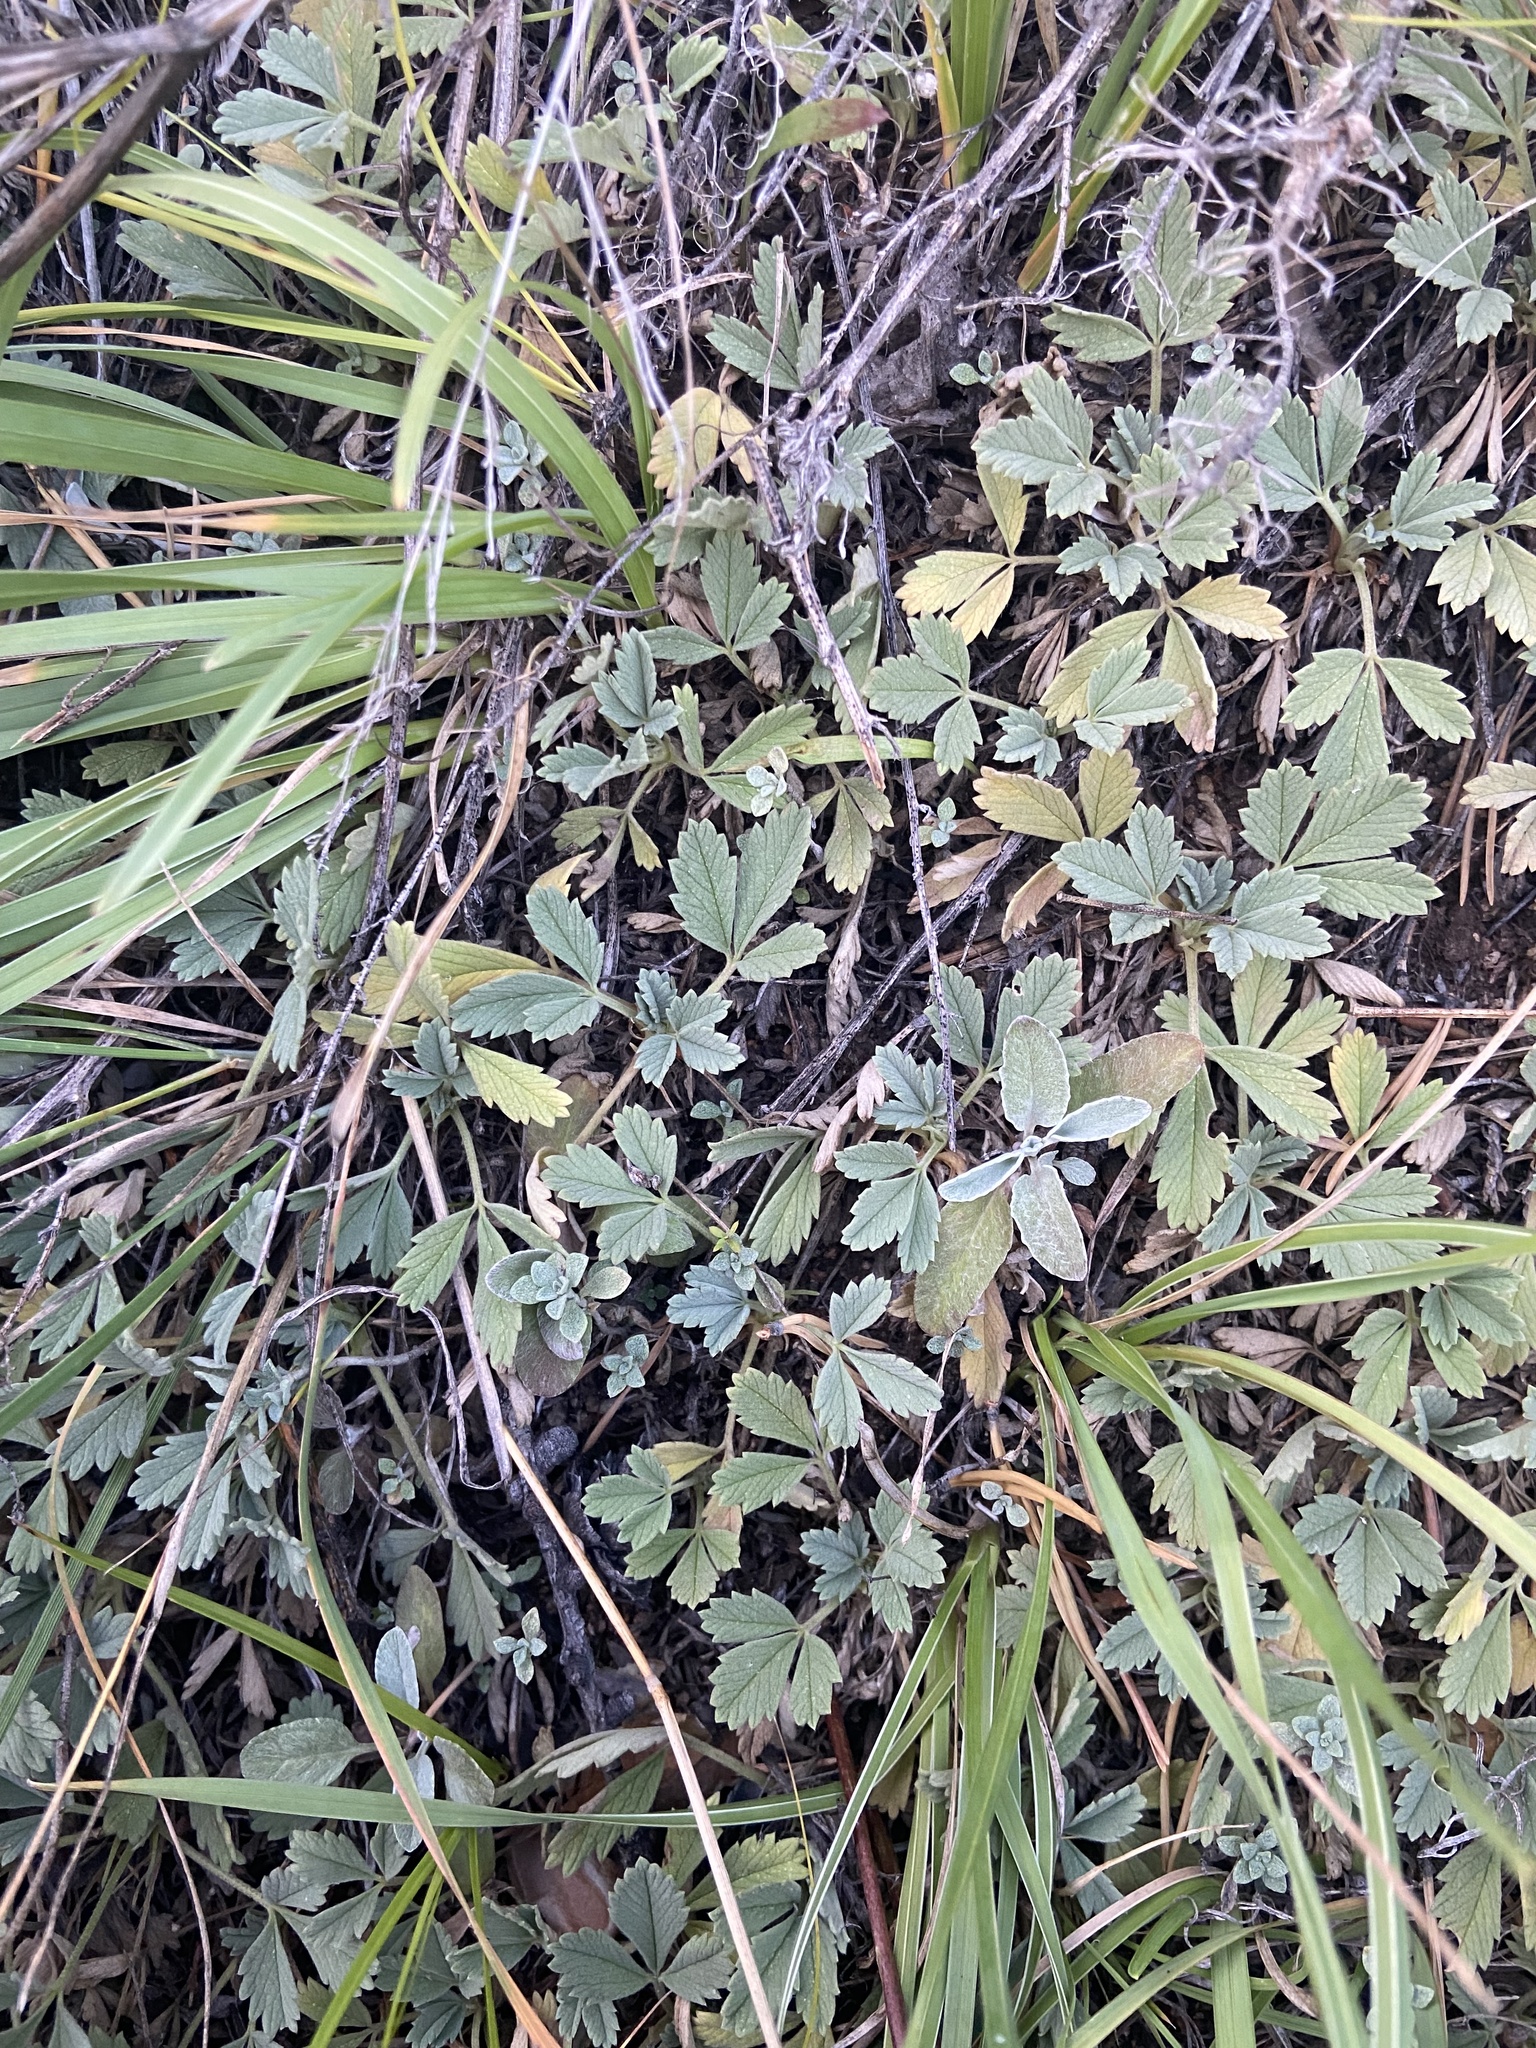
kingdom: Plantae
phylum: Tracheophyta
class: Magnoliopsida
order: Rosales
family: Rosaceae
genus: Potentilla
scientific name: Potentilla acaulis
